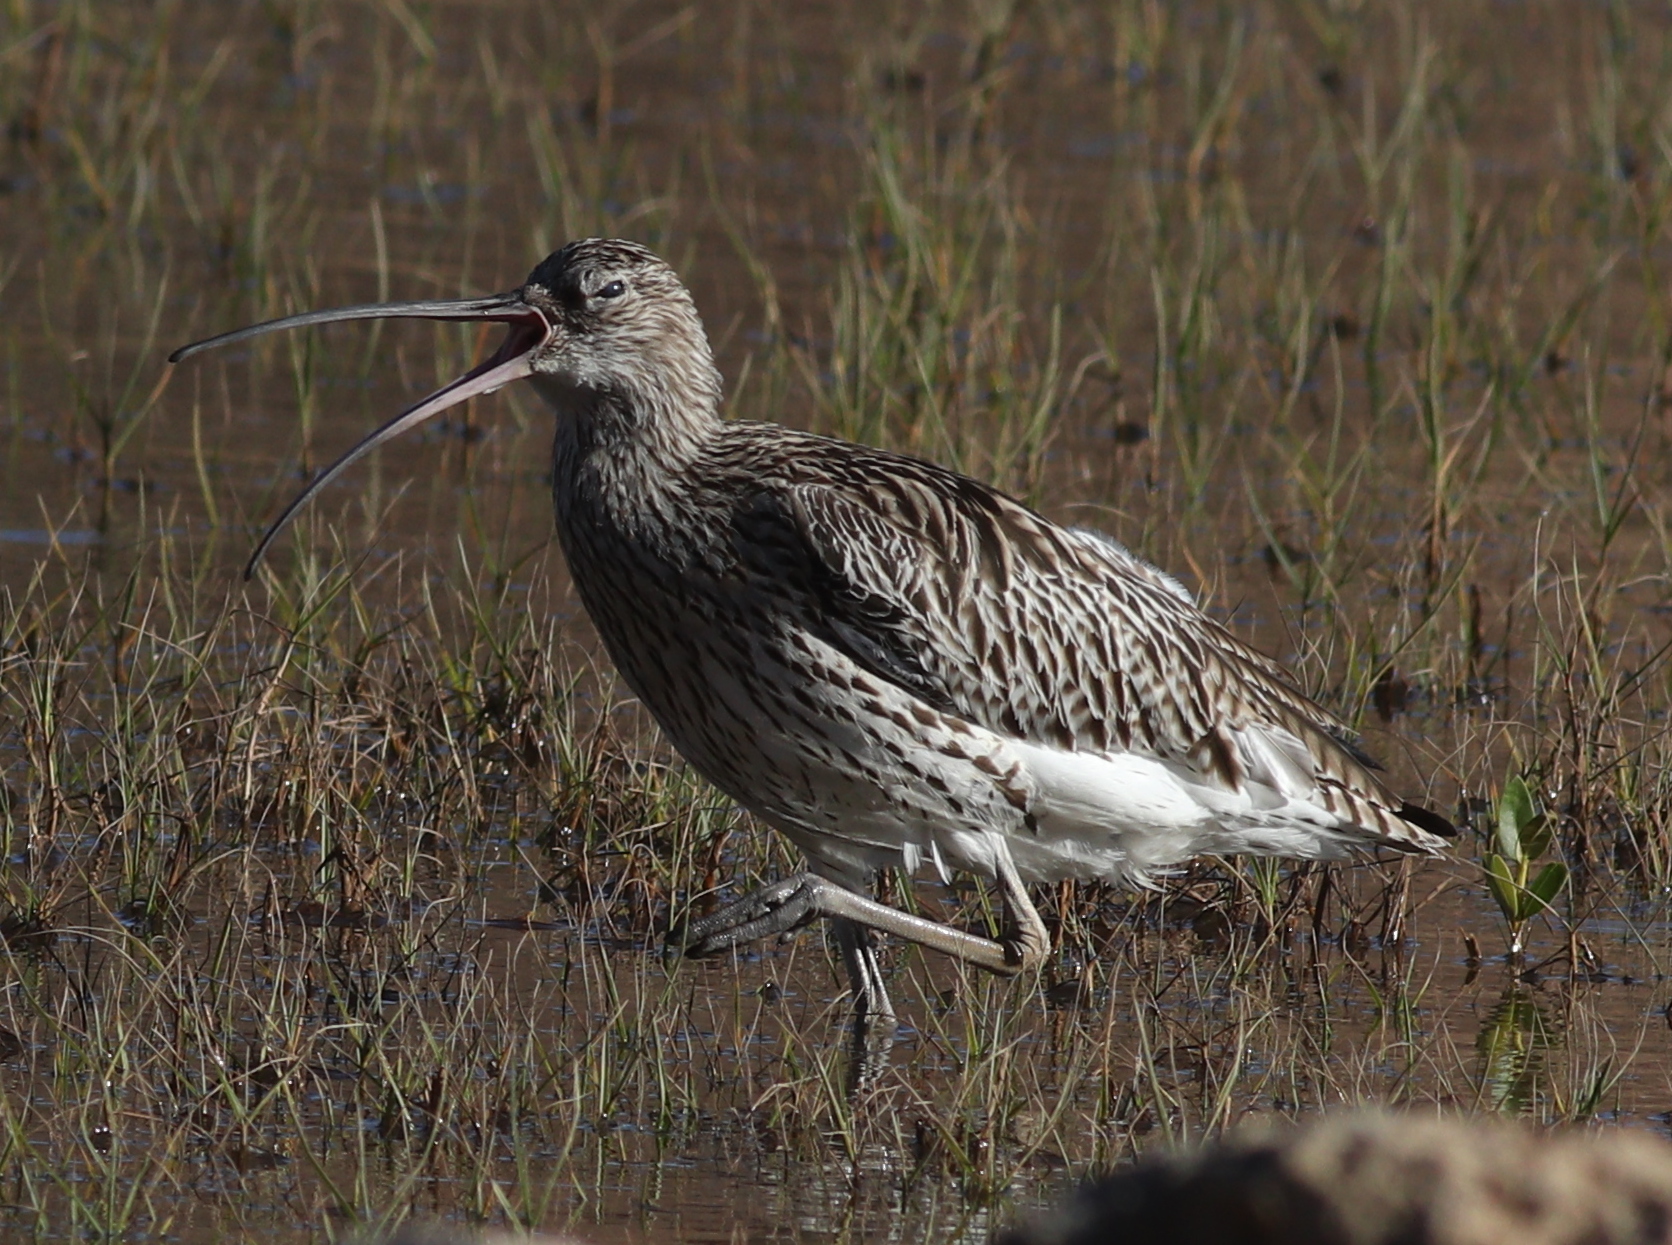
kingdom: Animalia
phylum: Chordata
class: Aves
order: Charadriiformes
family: Scolopacidae
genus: Numenius
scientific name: Numenius arquata
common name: Eurasian curlew
